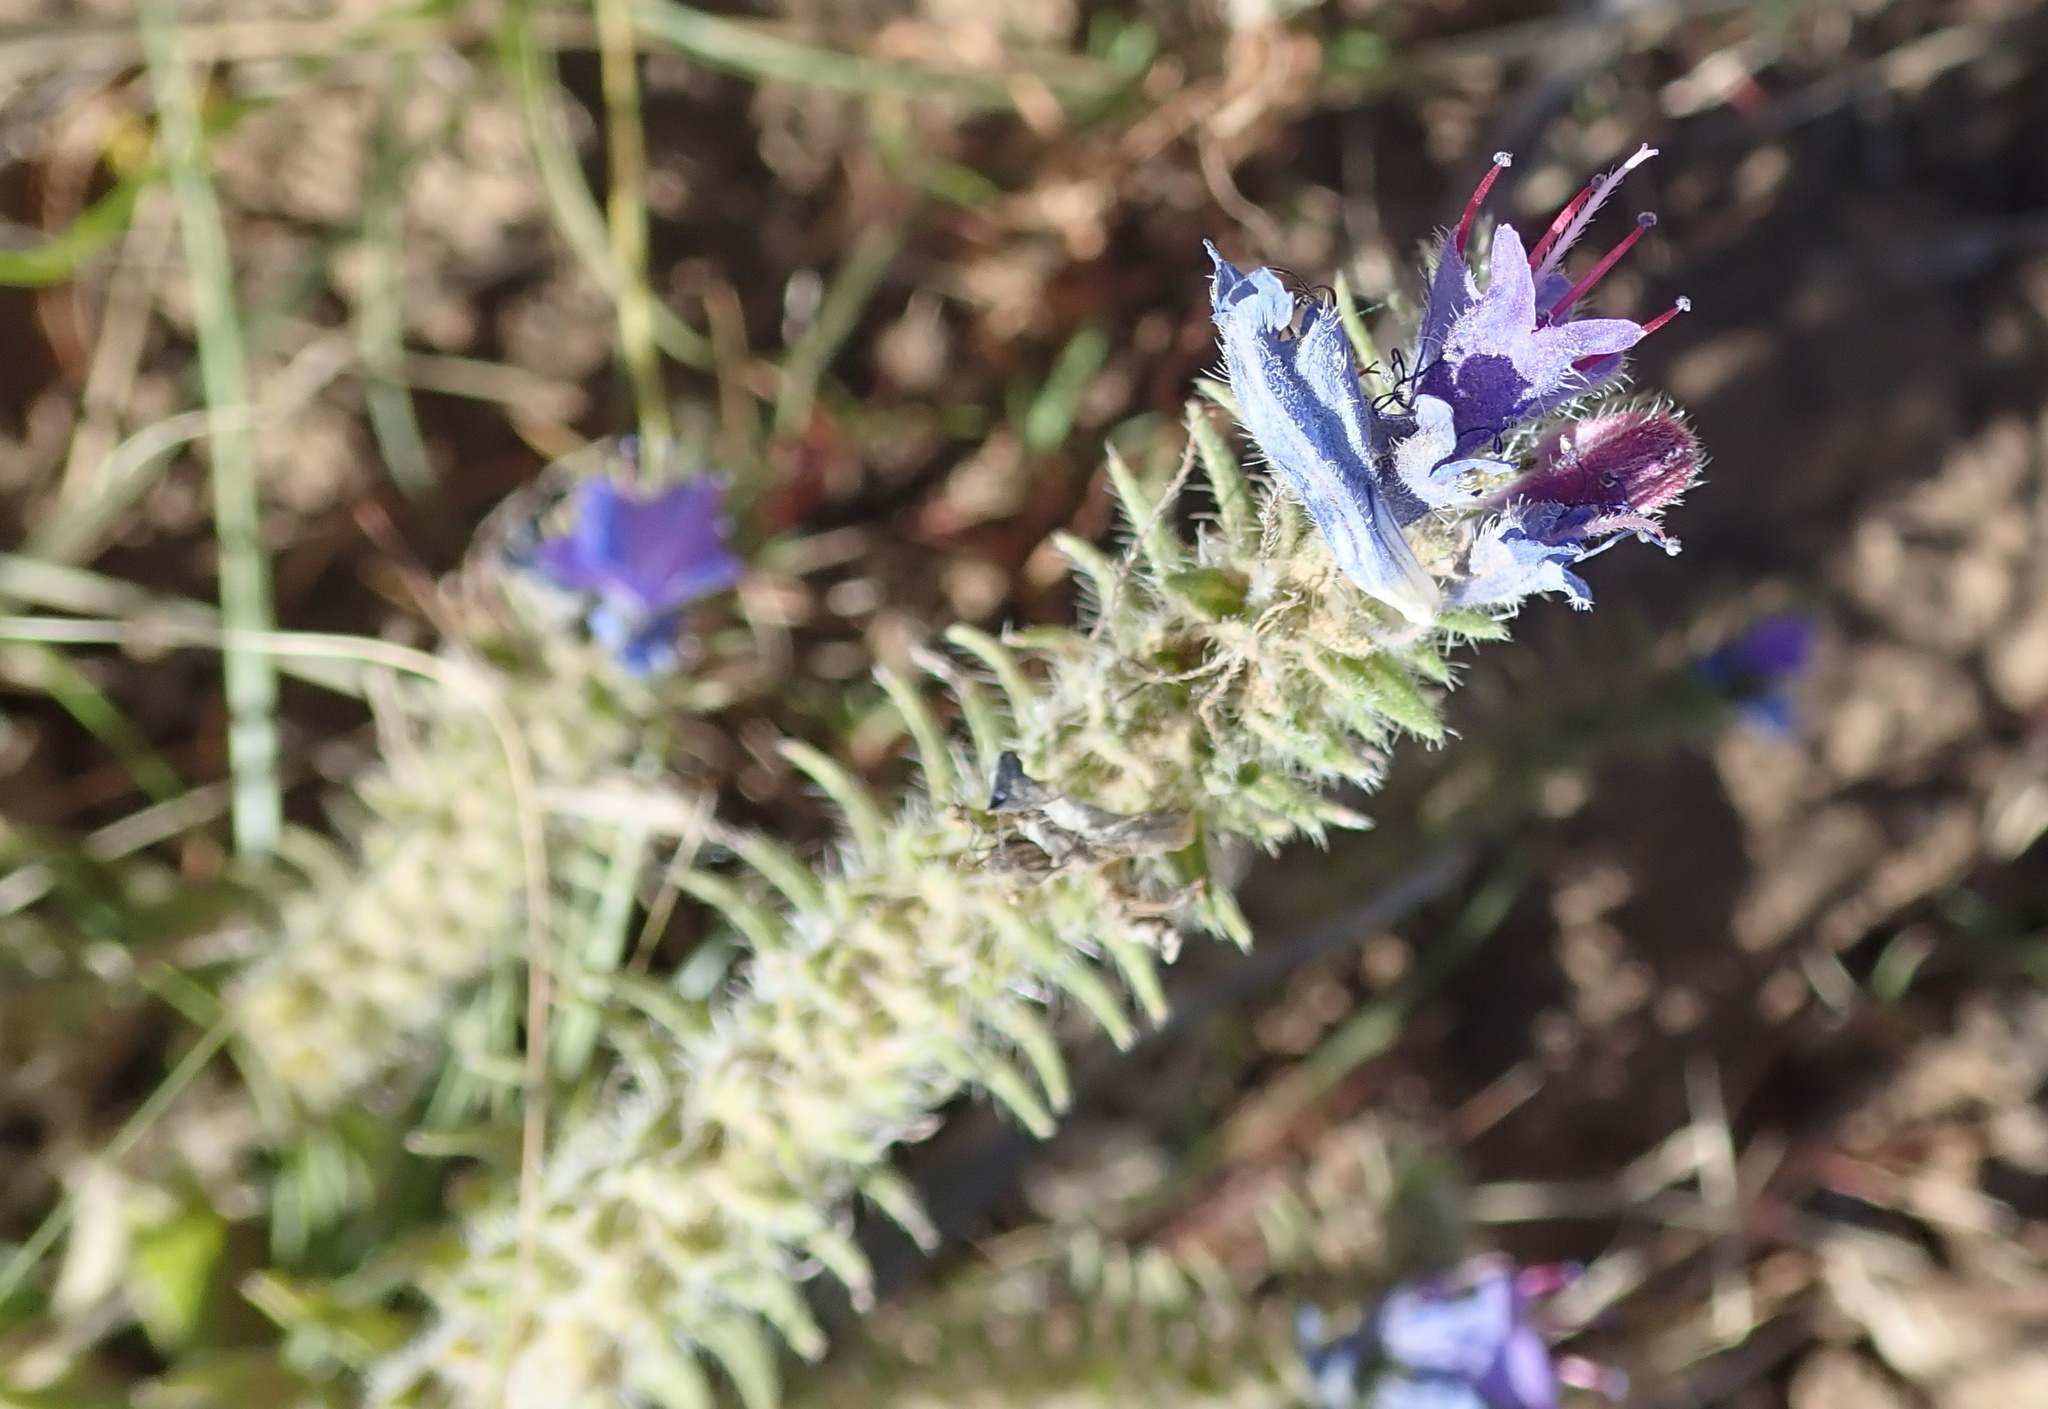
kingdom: Plantae
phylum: Tracheophyta
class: Magnoliopsida
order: Boraginales
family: Boraginaceae
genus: Echium
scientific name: Echium vulgare
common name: Common viper's bugloss
